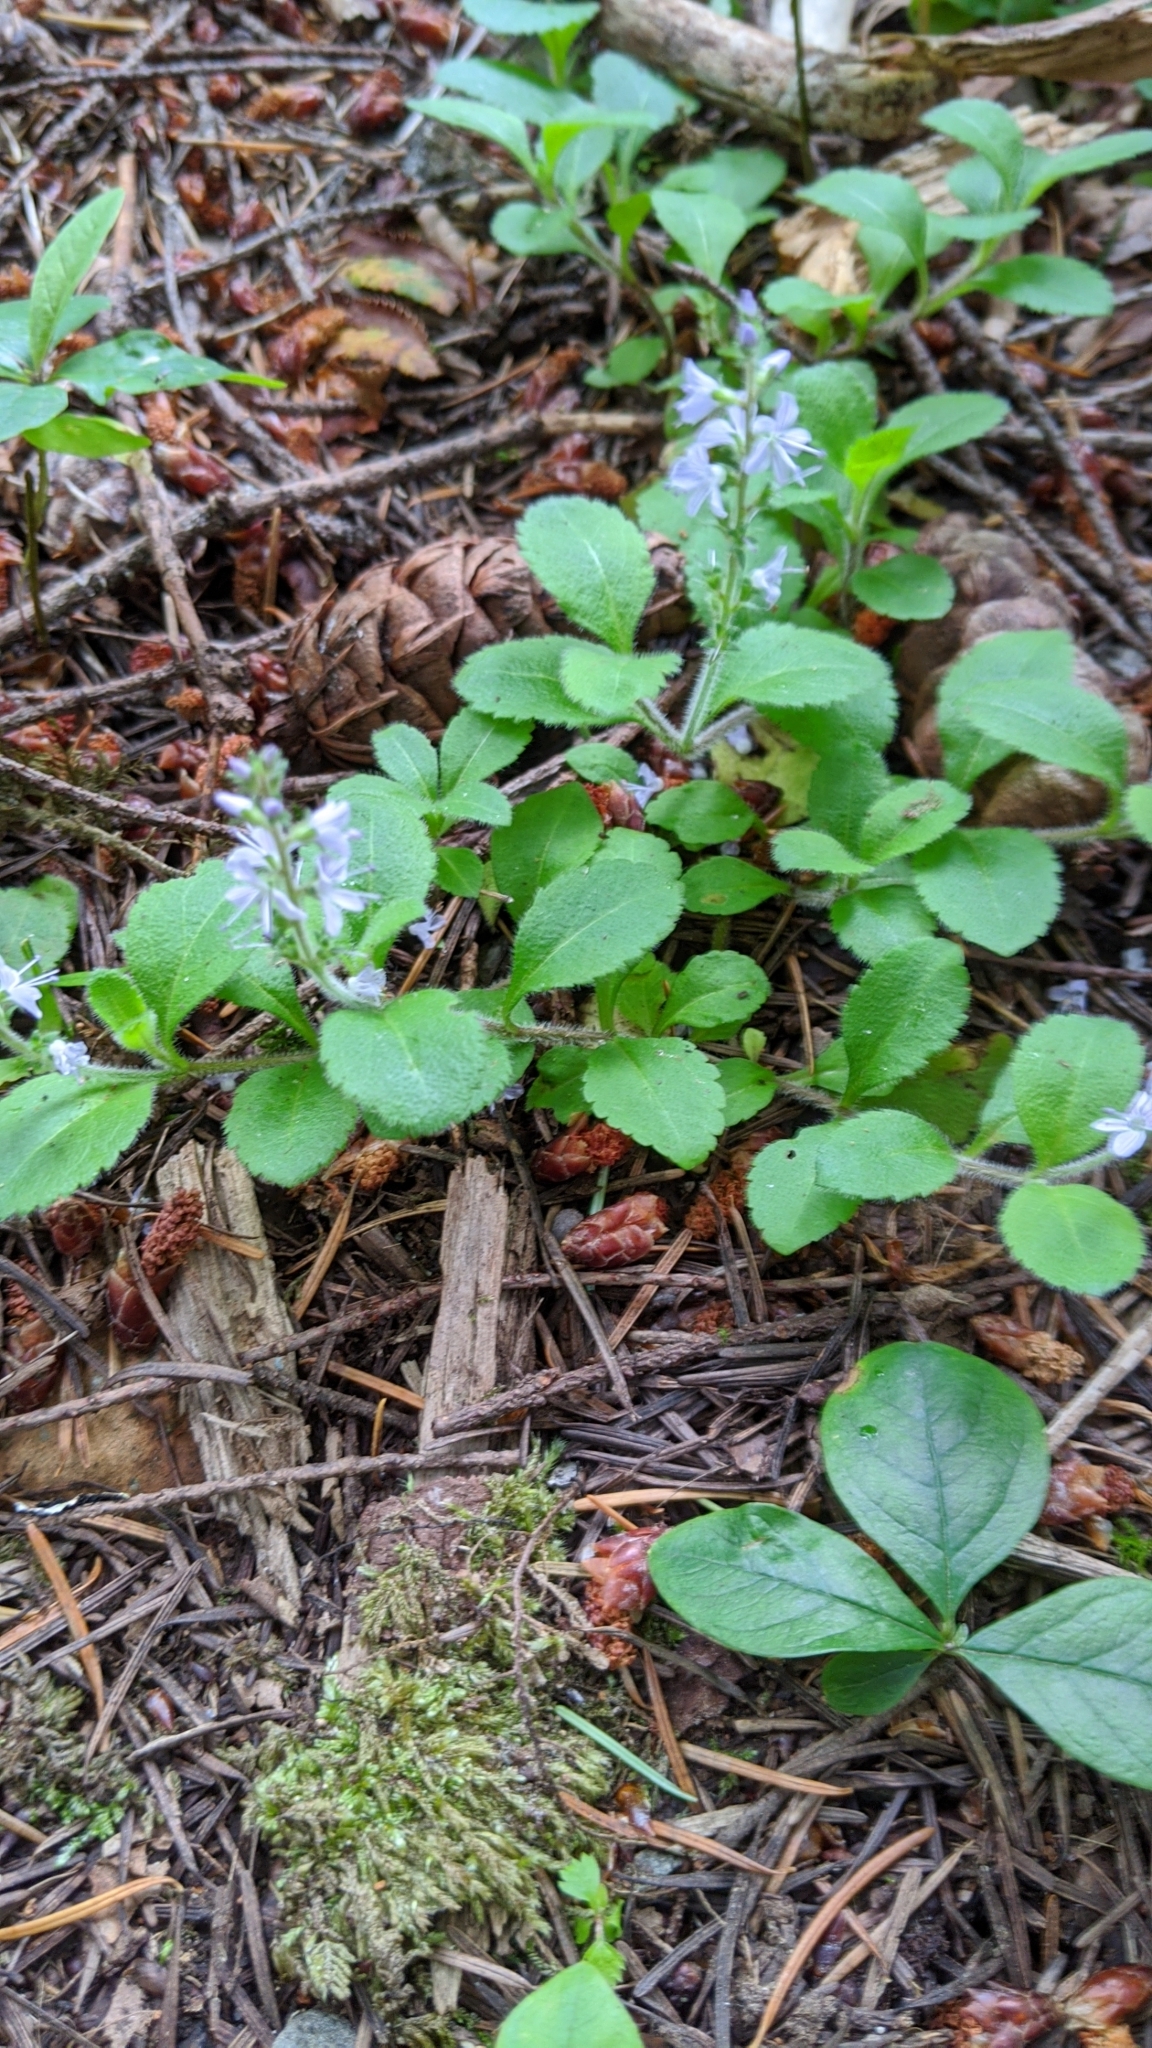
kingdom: Plantae
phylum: Tracheophyta
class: Magnoliopsida
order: Lamiales
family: Plantaginaceae
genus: Veronica
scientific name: Veronica officinalis
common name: Common speedwell
